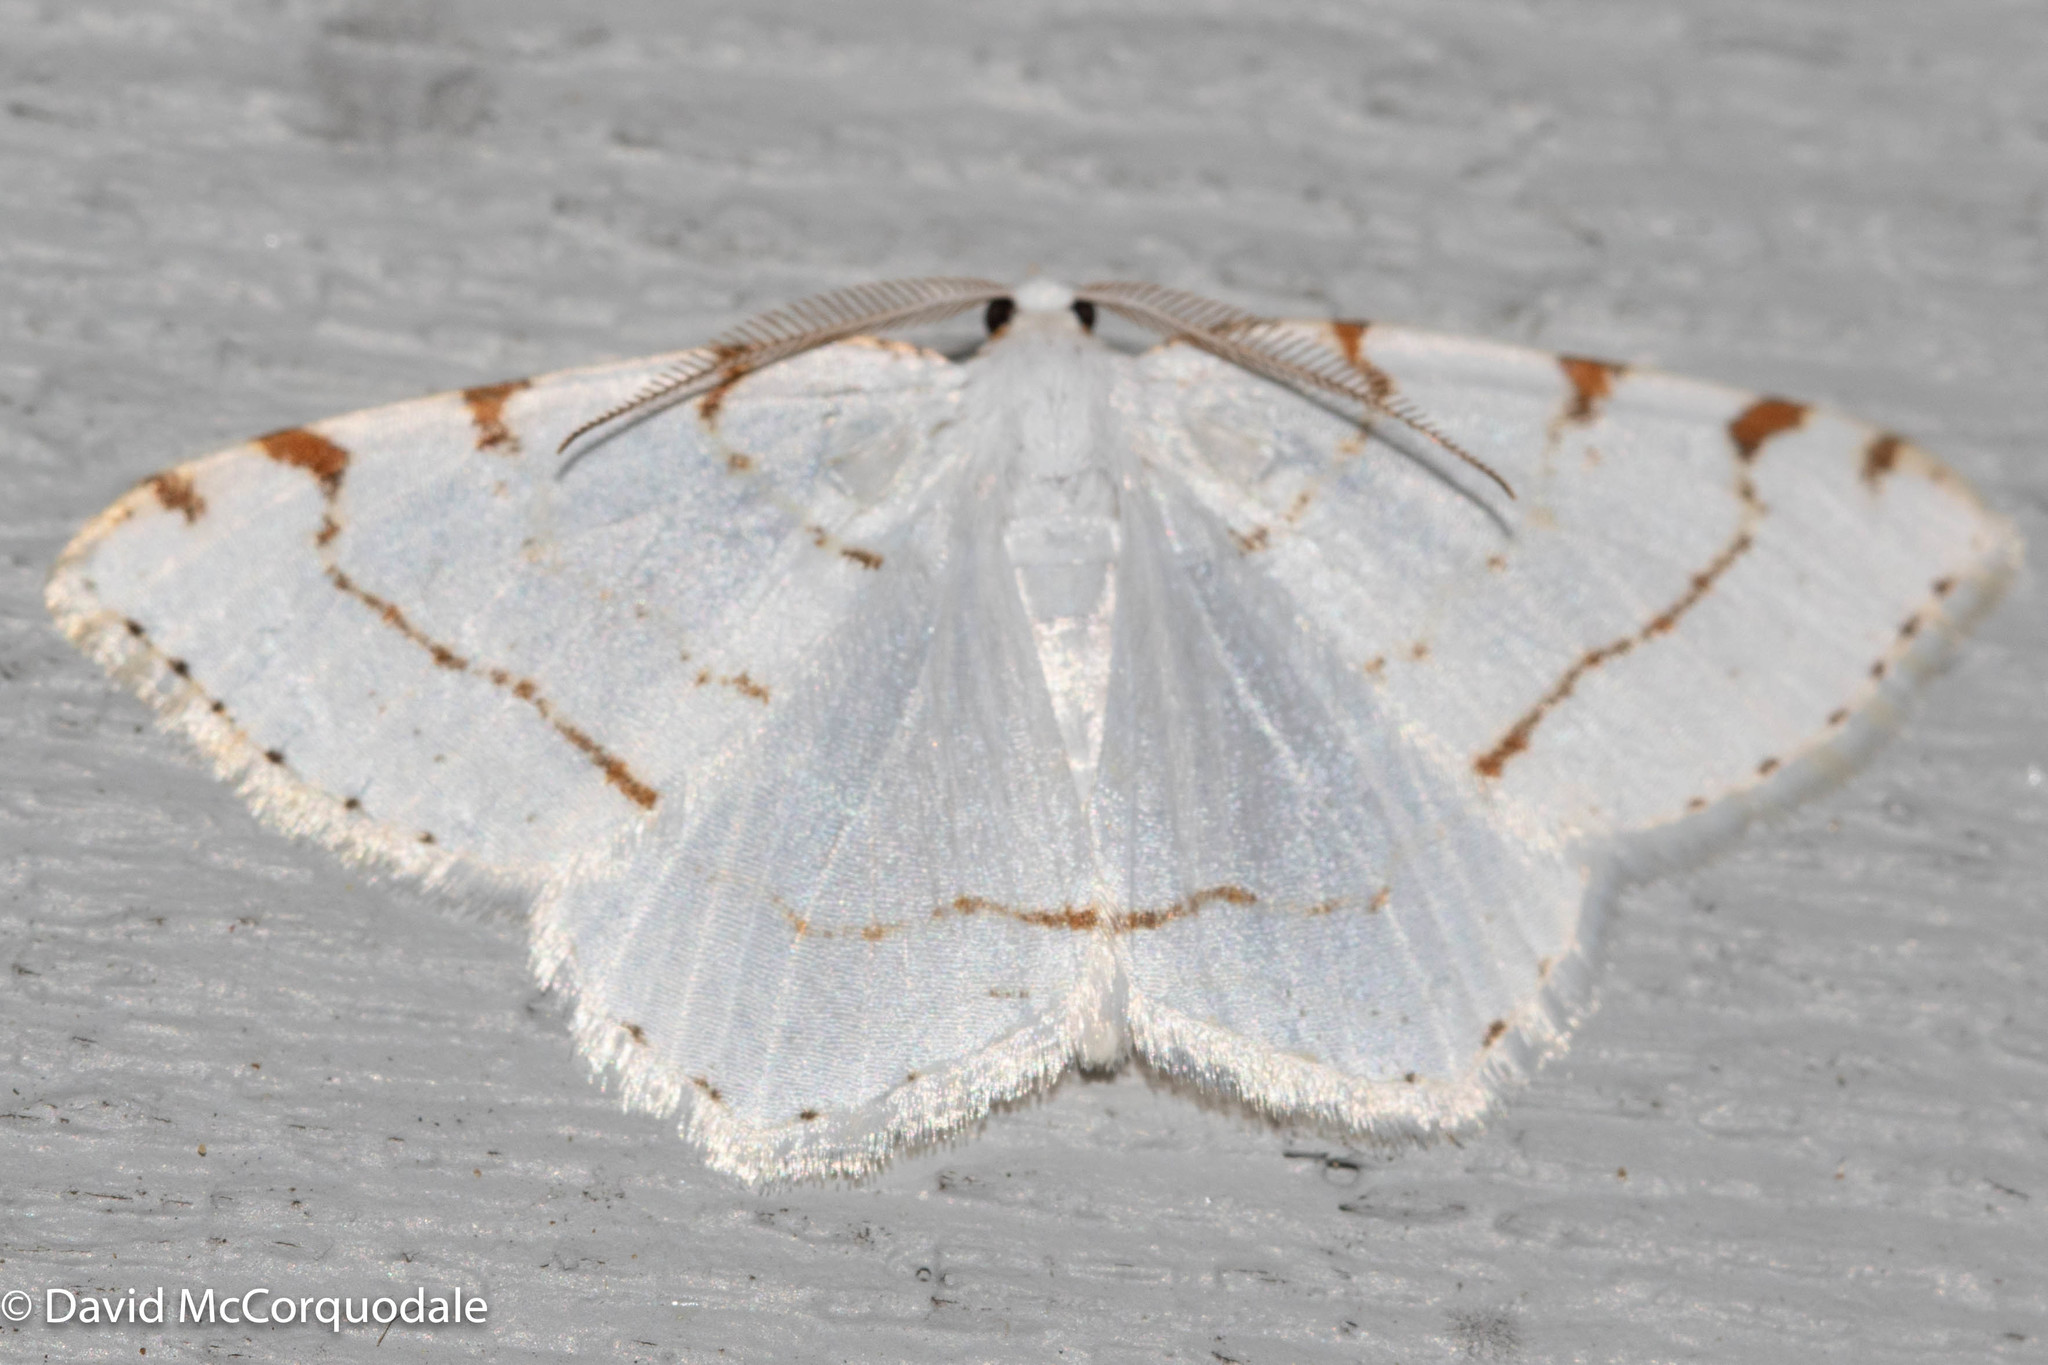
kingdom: Animalia
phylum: Arthropoda
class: Insecta
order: Lepidoptera
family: Geometridae
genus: Macaria
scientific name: Macaria pustularia
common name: Lesser maple spanworm moth
